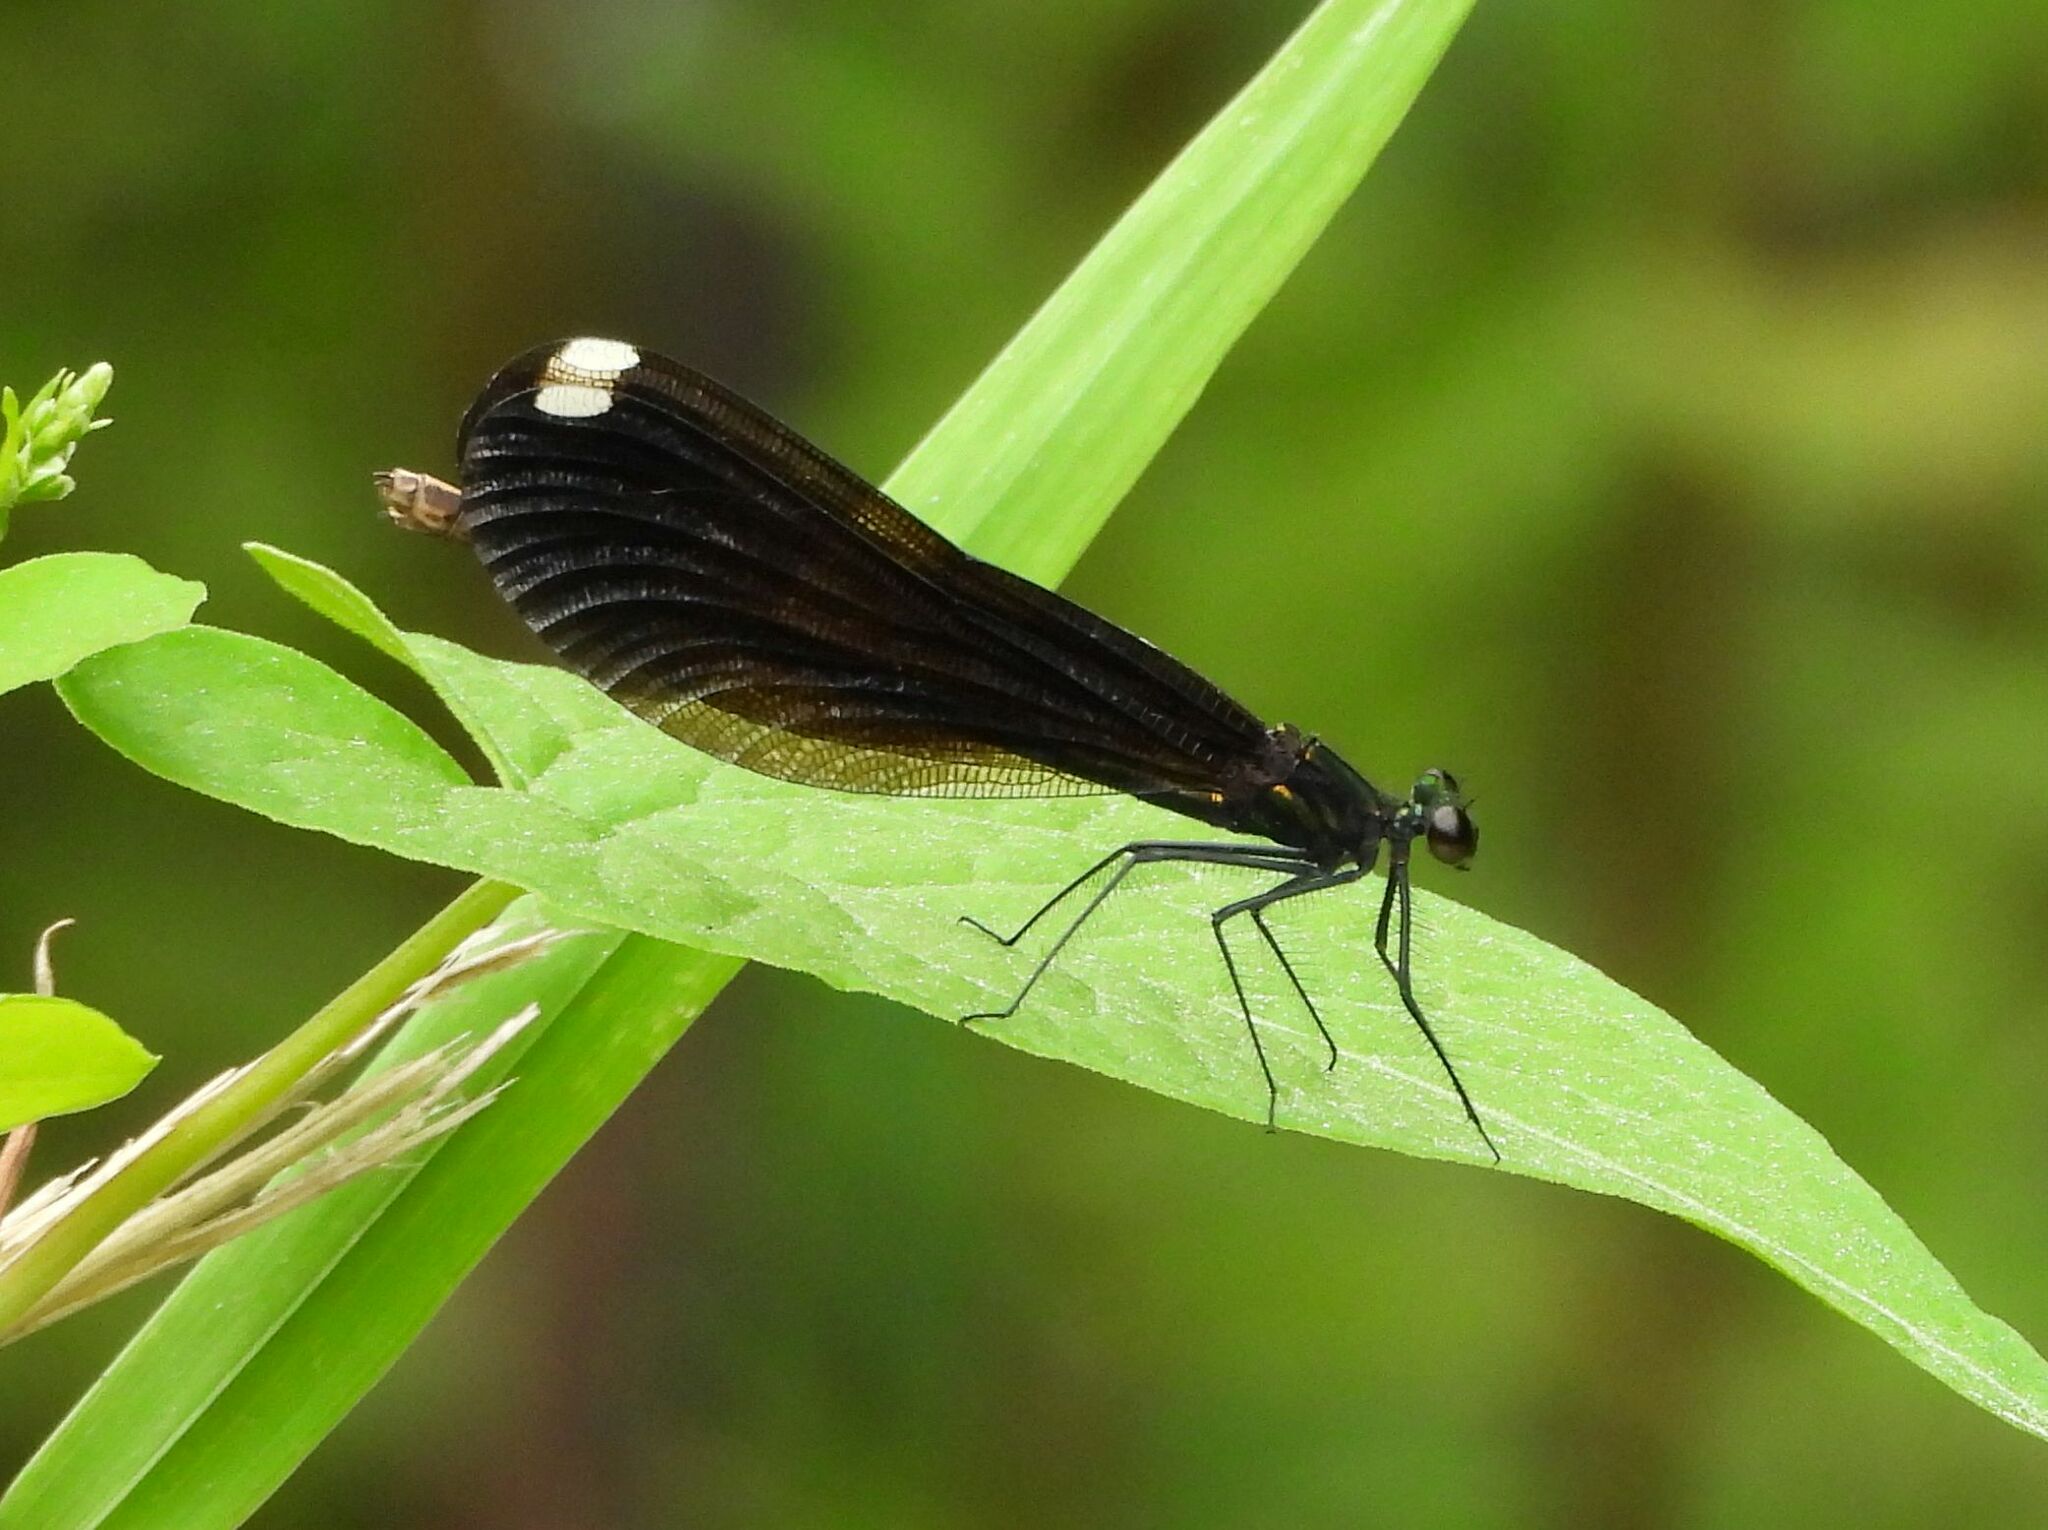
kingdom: Animalia
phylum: Arthropoda
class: Insecta
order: Odonata
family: Calopterygidae
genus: Calopteryx
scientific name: Calopteryx maculata
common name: Ebony jewelwing
